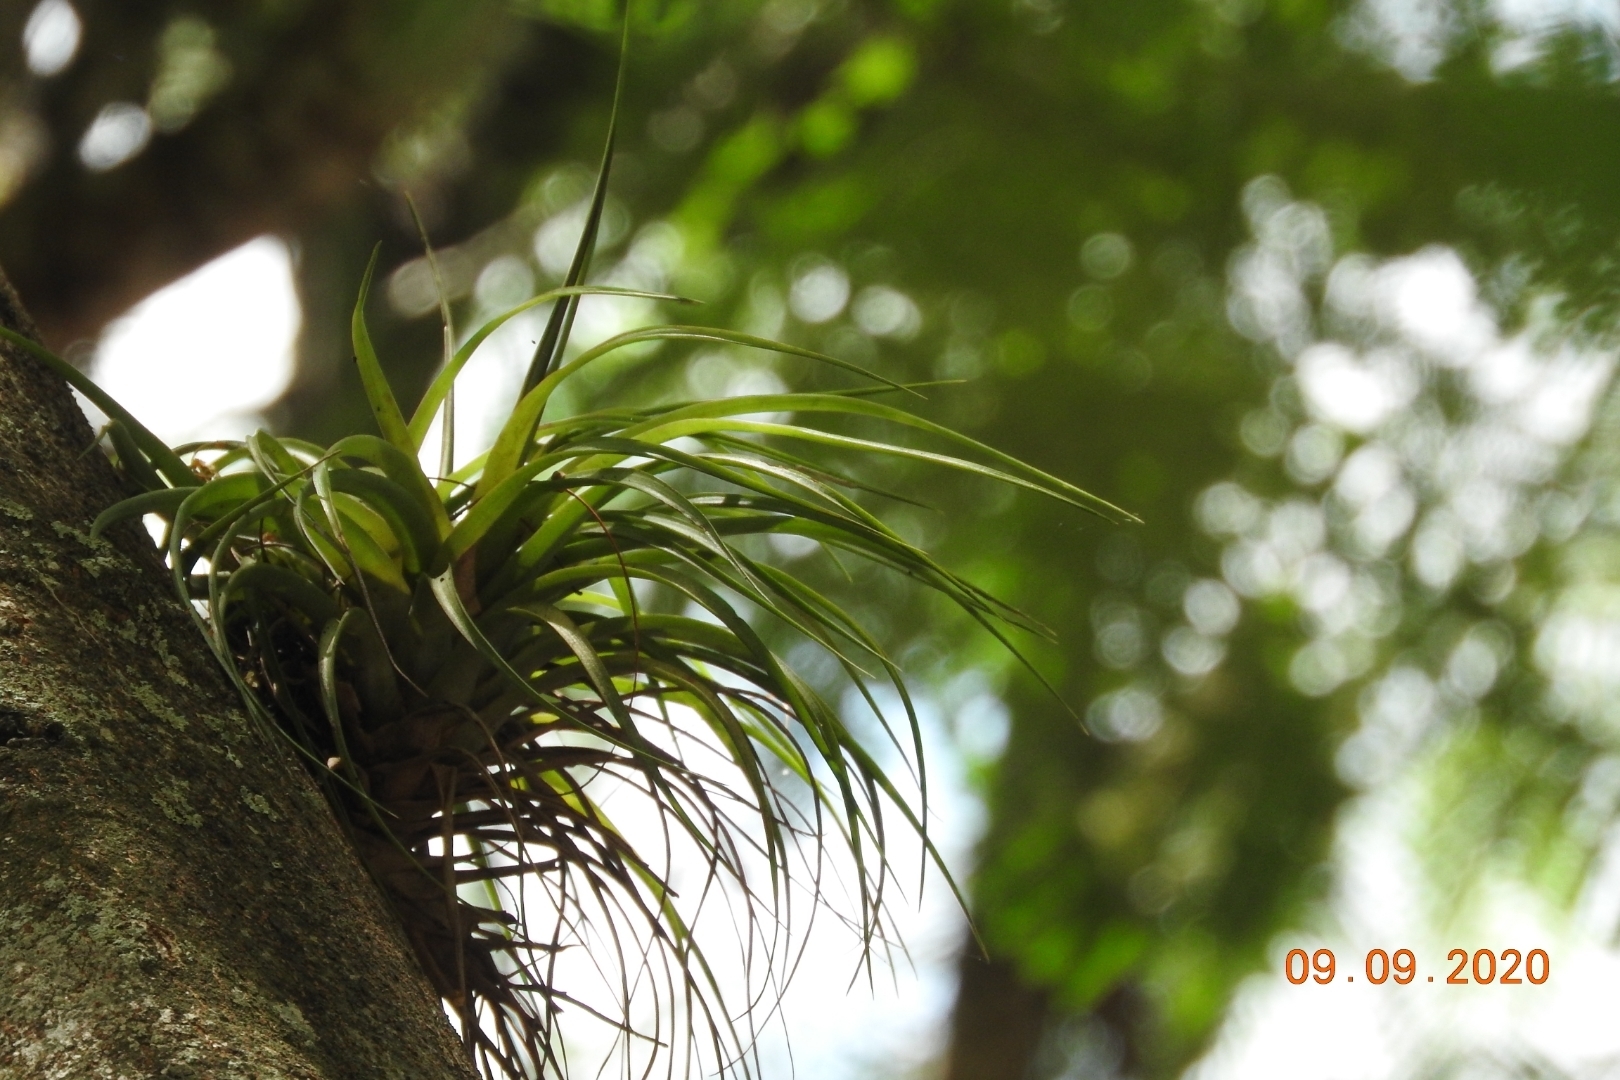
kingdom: Plantae
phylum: Tracheophyta
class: Liliopsida
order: Poales
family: Bromeliaceae
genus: Tillandsia
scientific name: Tillandsia brachycaulos
